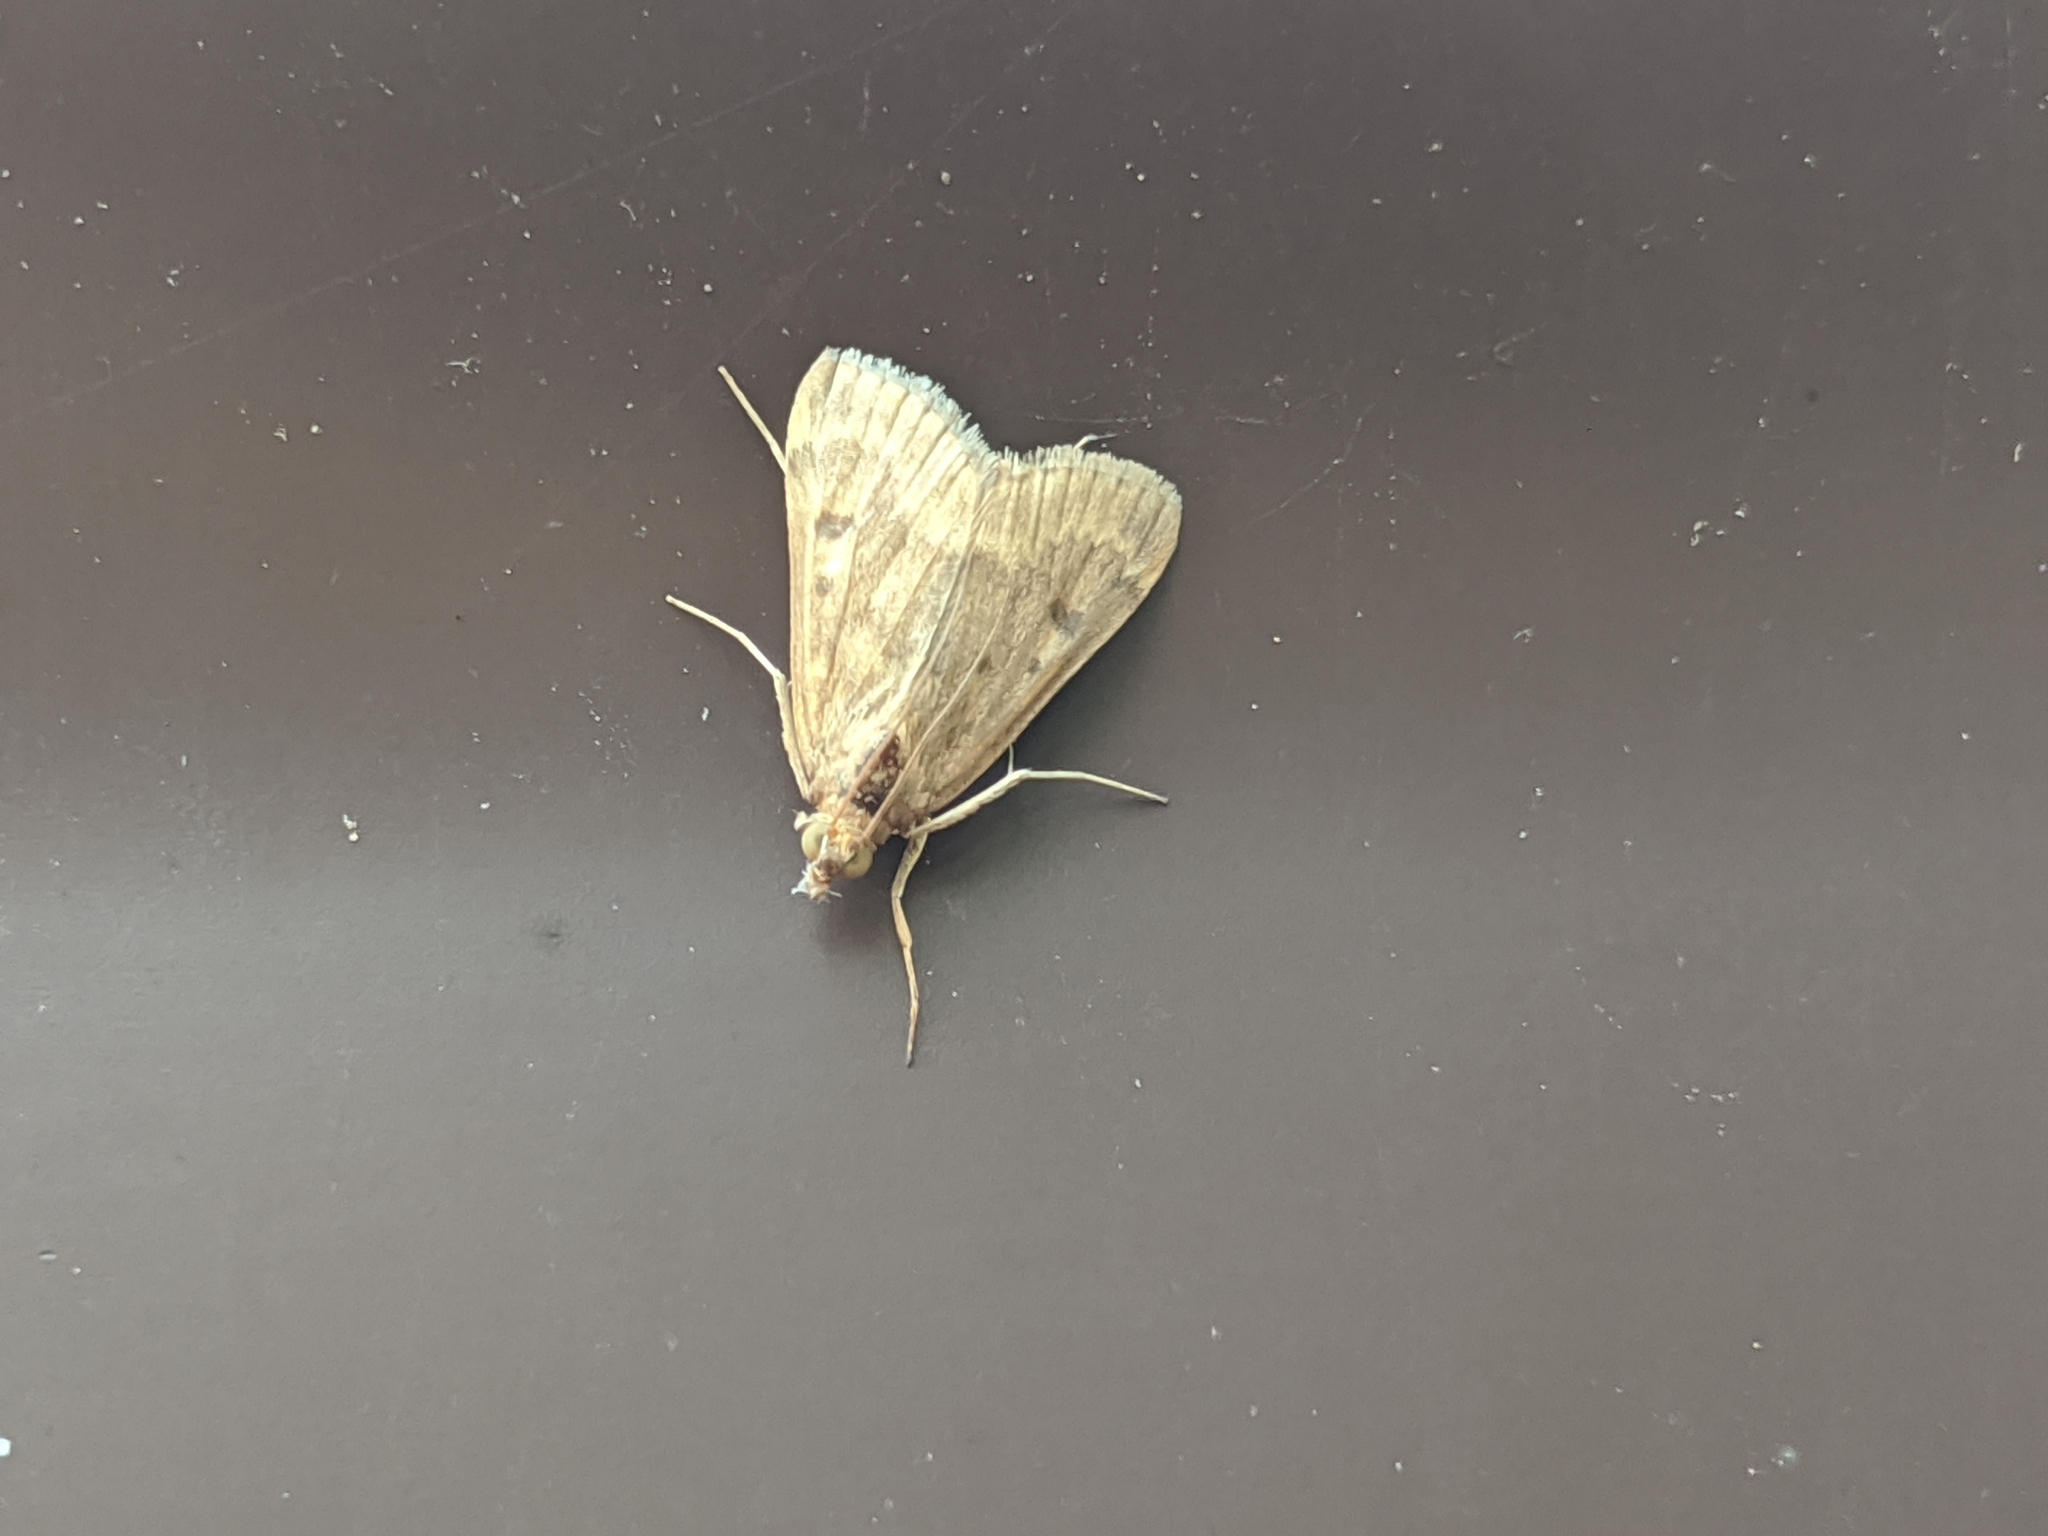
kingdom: Animalia
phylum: Arthropoda
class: Insecta
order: Lepidoptera
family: Crambidae
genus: Achyra
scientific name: Achyra rantalis
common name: Garden webworm
